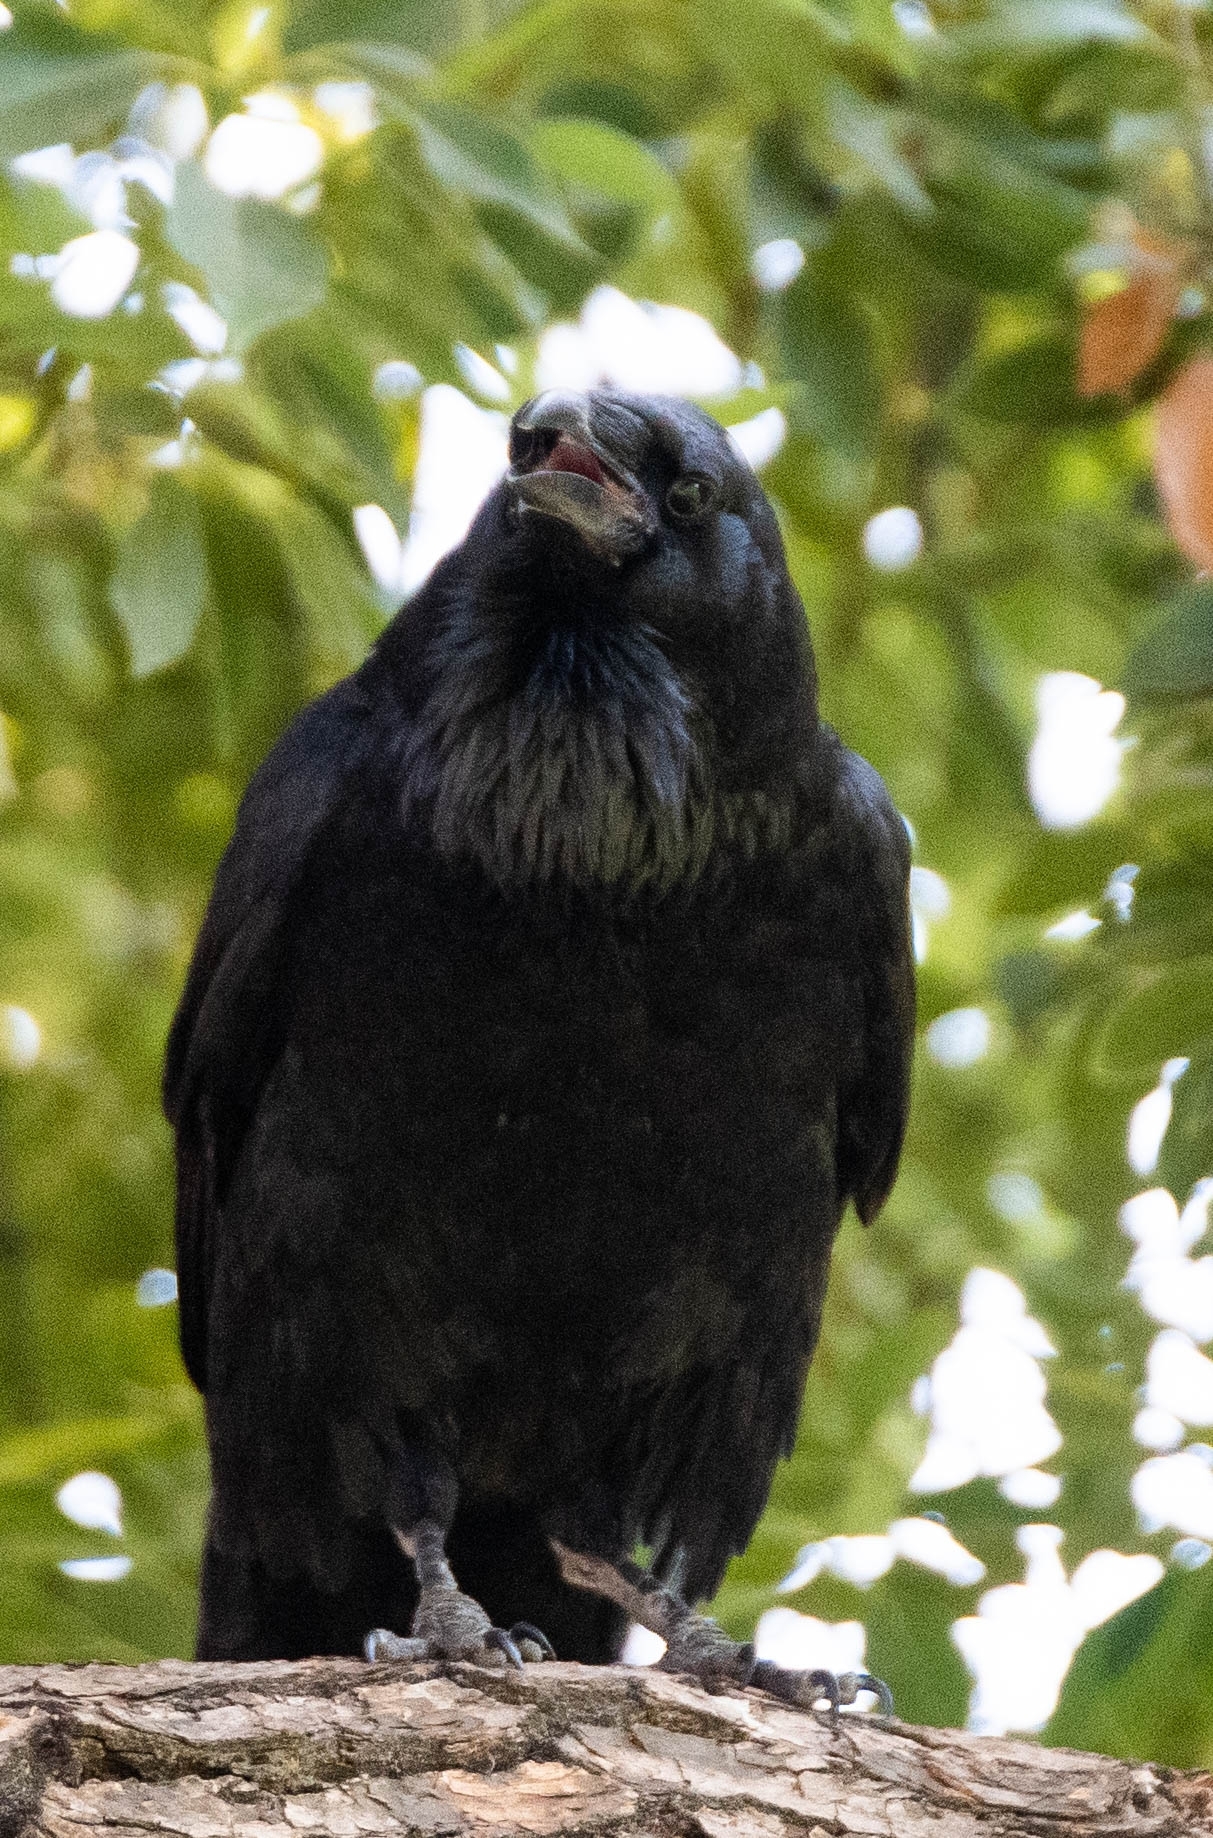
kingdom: Animalia
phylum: Chordata
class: Aves
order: Passeriformes
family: Corvidae
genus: Corvus
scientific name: Corvus corax
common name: Common raven
